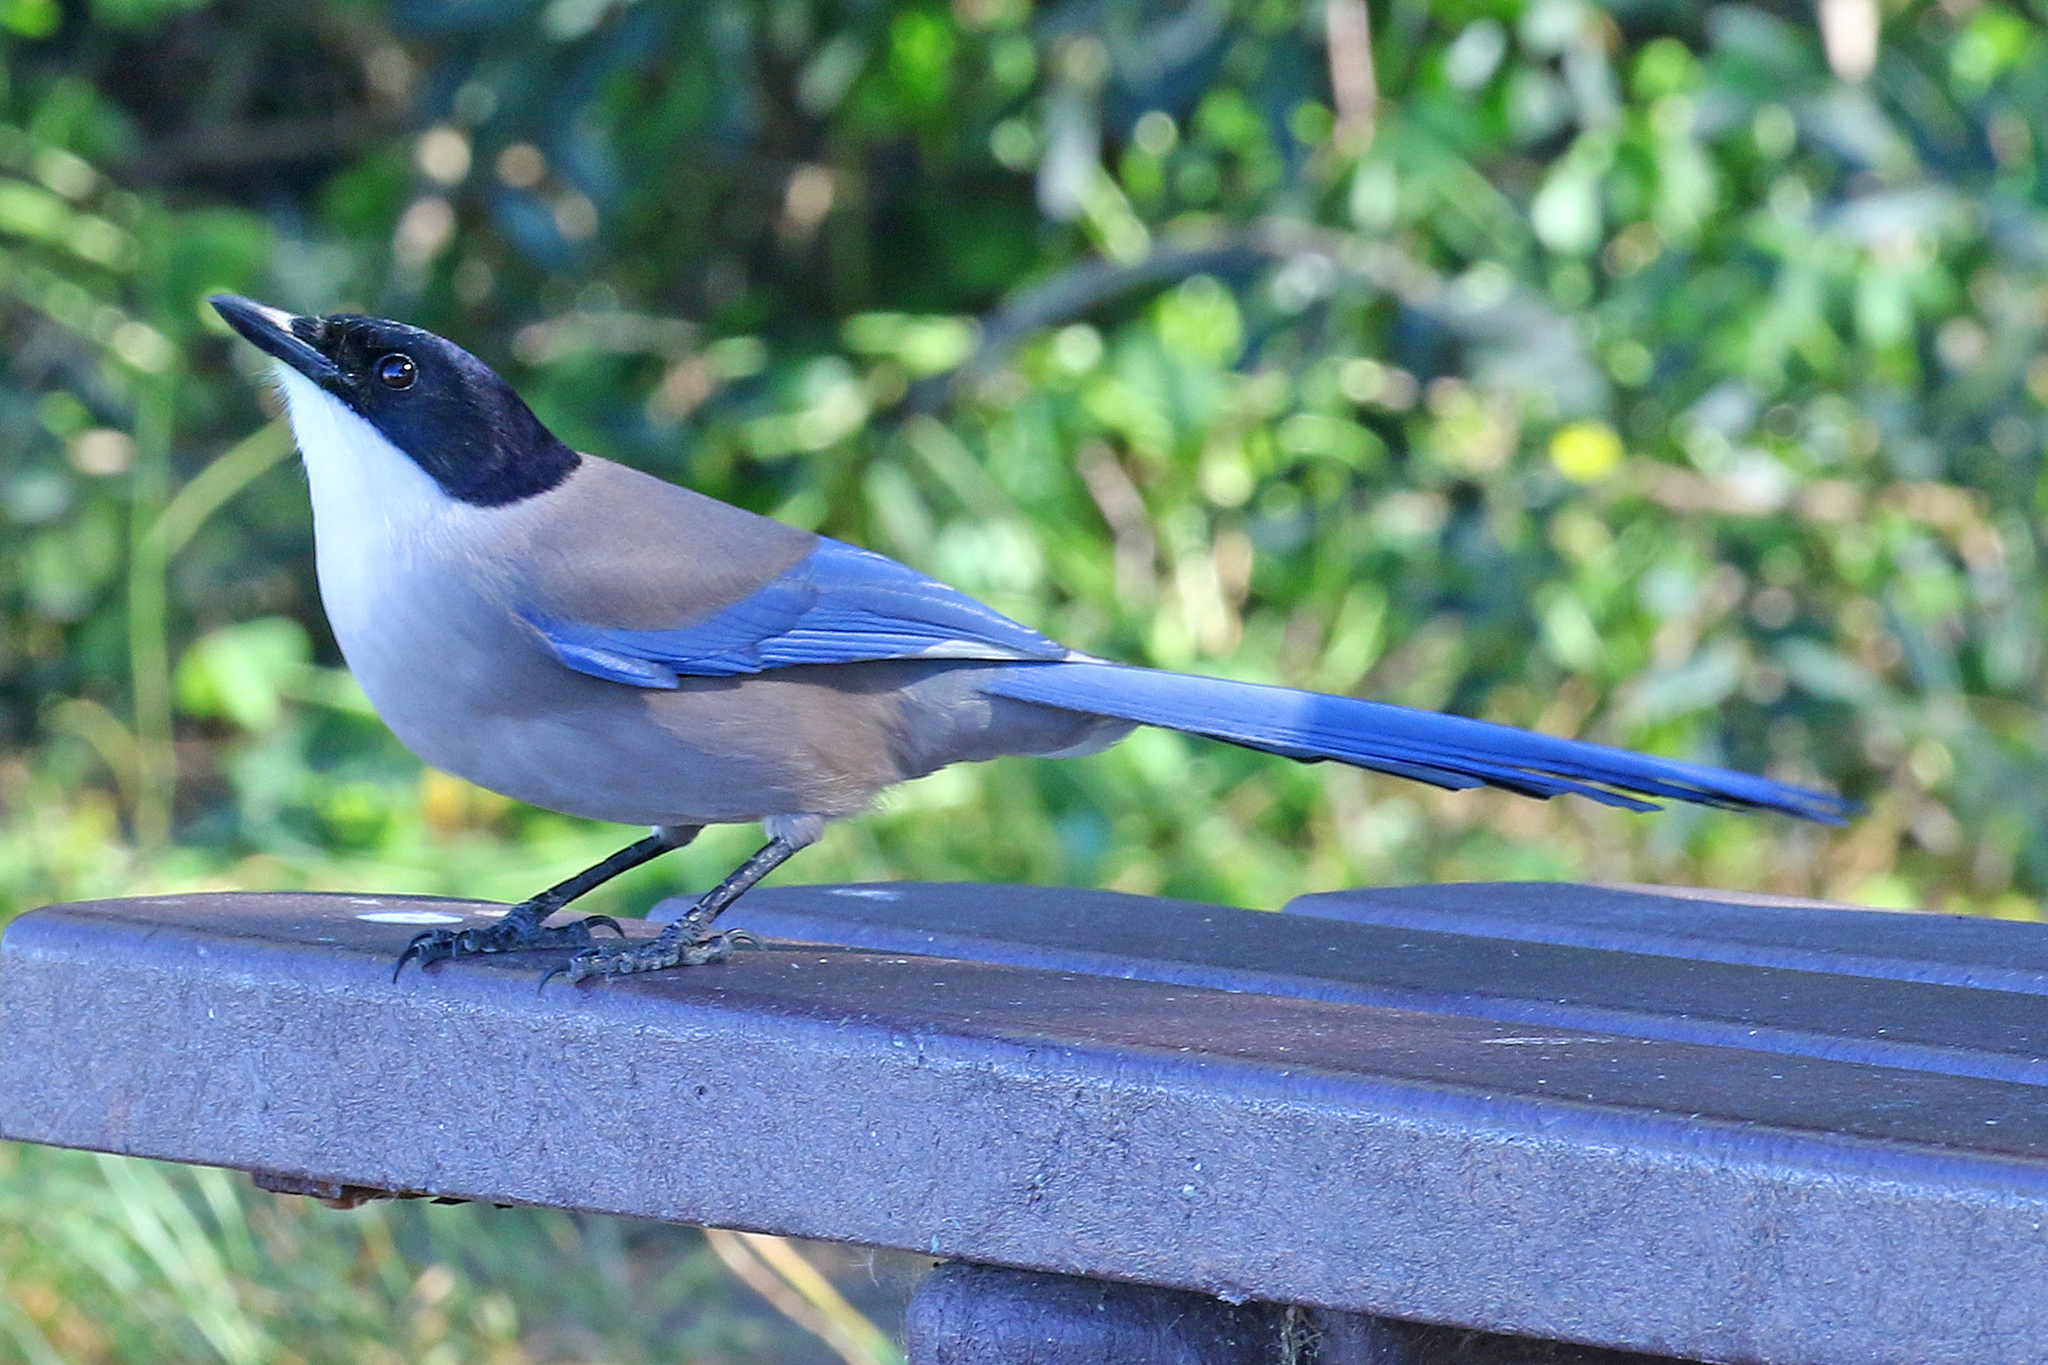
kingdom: Animalia
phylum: Chordata
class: Aves
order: Passeriformes
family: Corvidae
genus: Cyanopica
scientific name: Cyanopica cooki
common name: Iberian magpie
